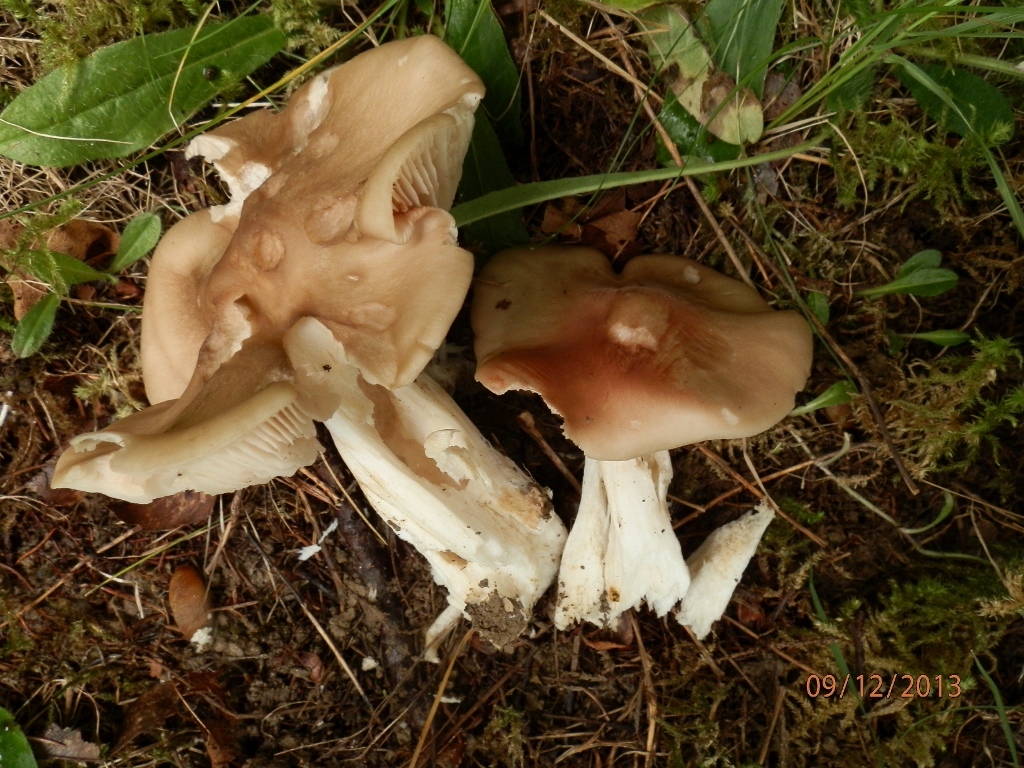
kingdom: Fungi
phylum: Basidiomycota
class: Agaricomycetes
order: Agaricales
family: Entolomataceae
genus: Entoloma
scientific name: Entoloma sinuatum
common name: Livid pinkgill
